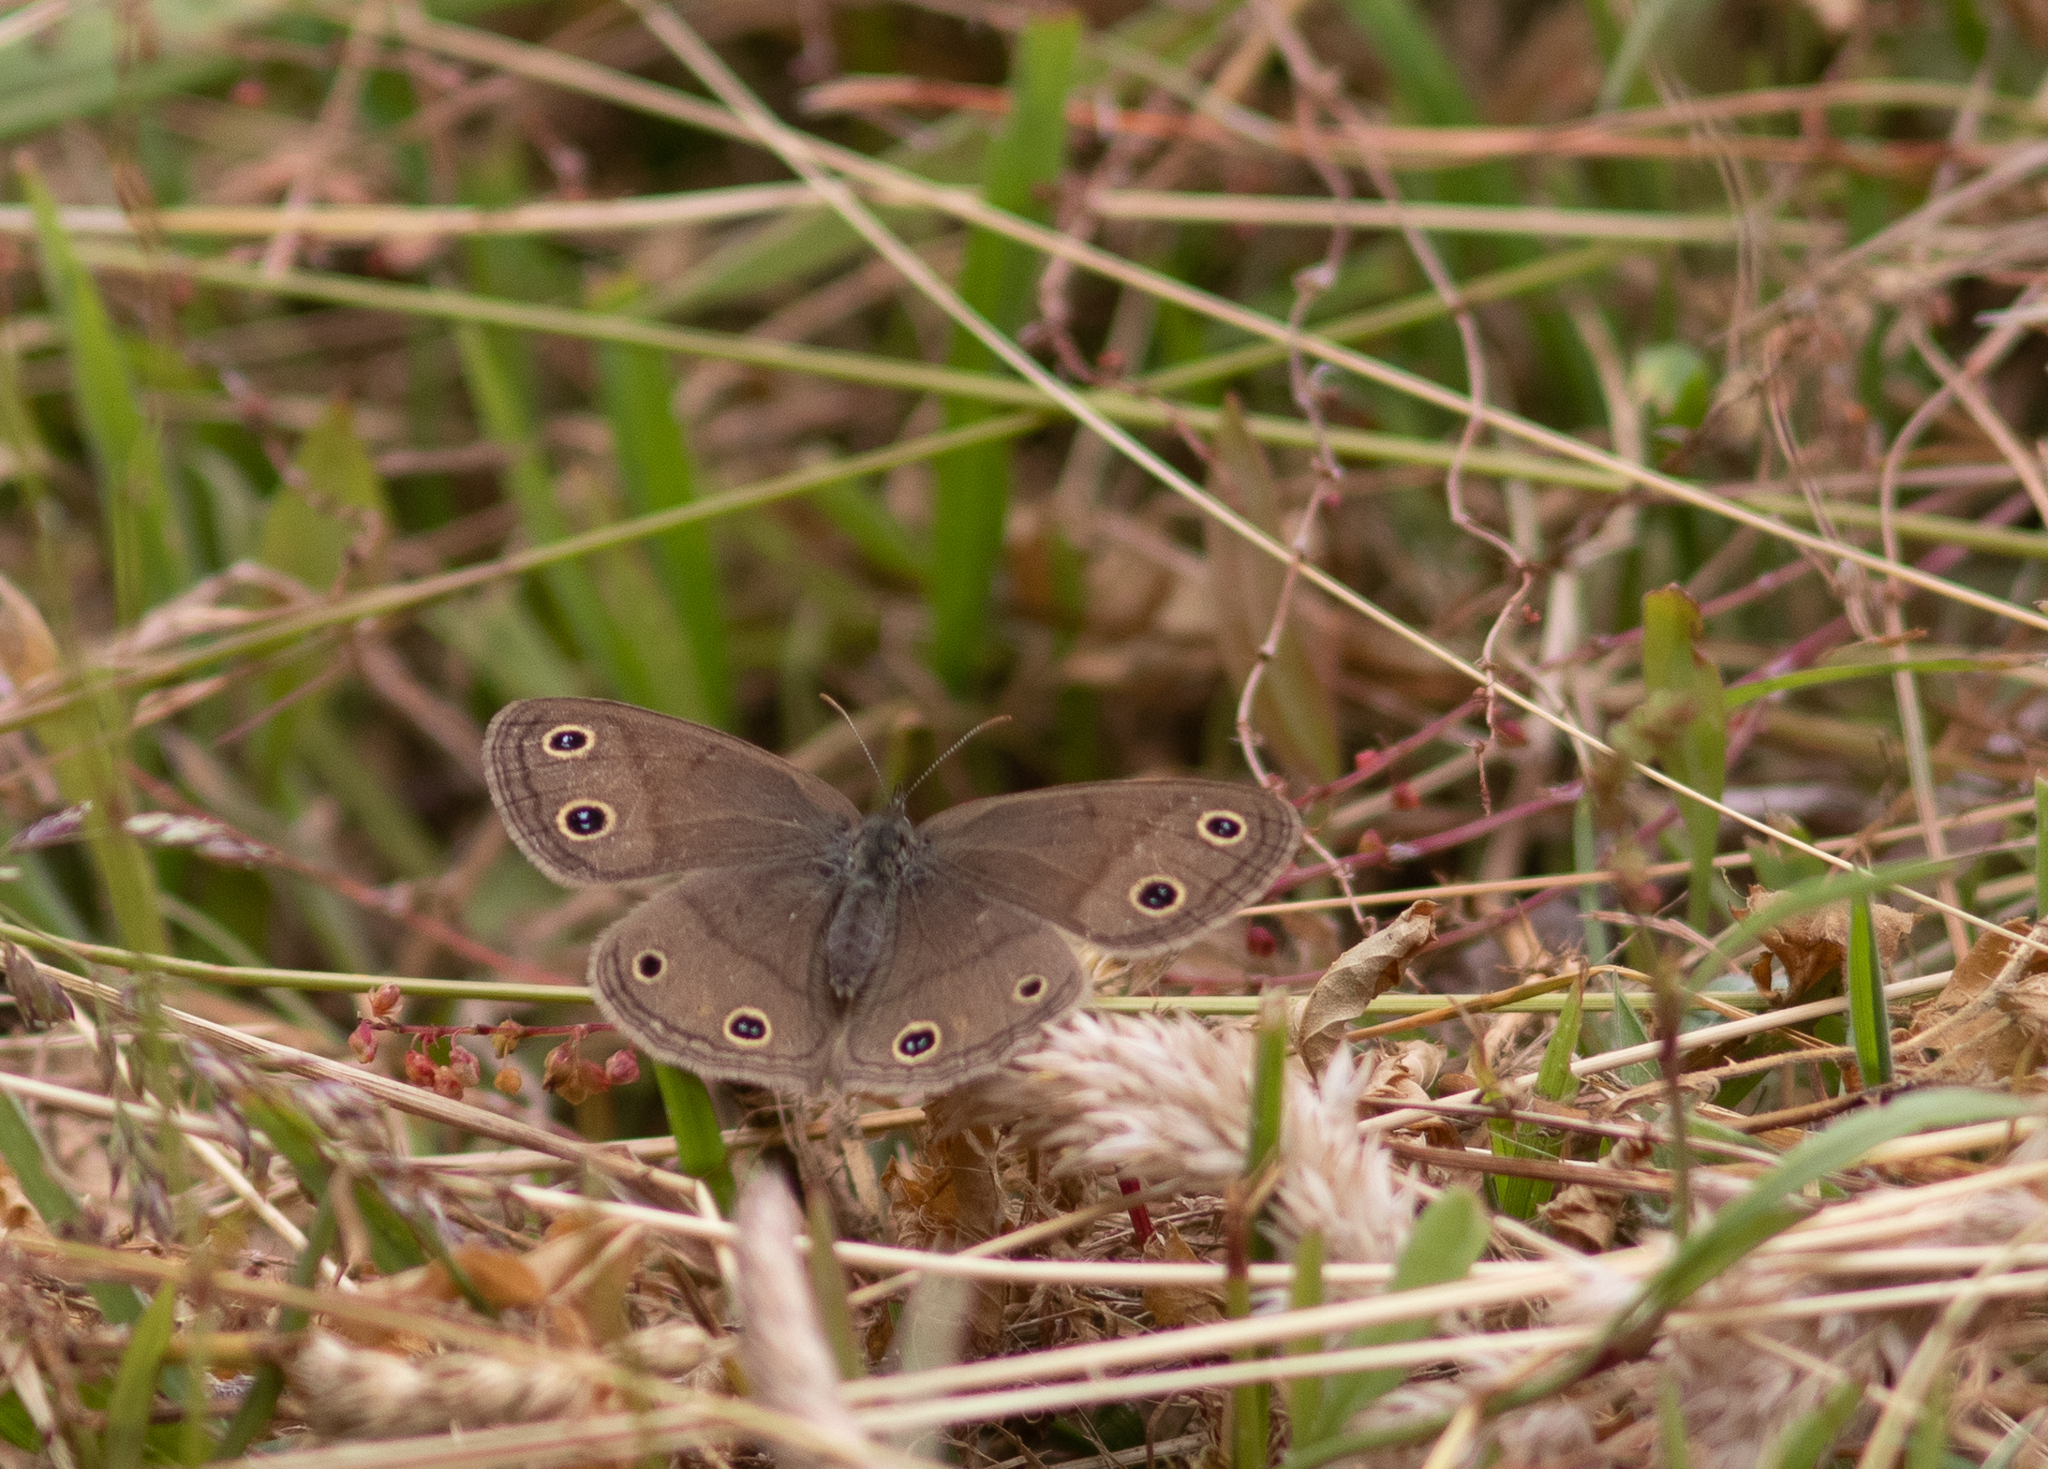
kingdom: Animalia
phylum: Arthropoda
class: Insecta
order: Lepidoptera
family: Nymphalidae
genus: Euptychia
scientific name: Euptychia cymela
